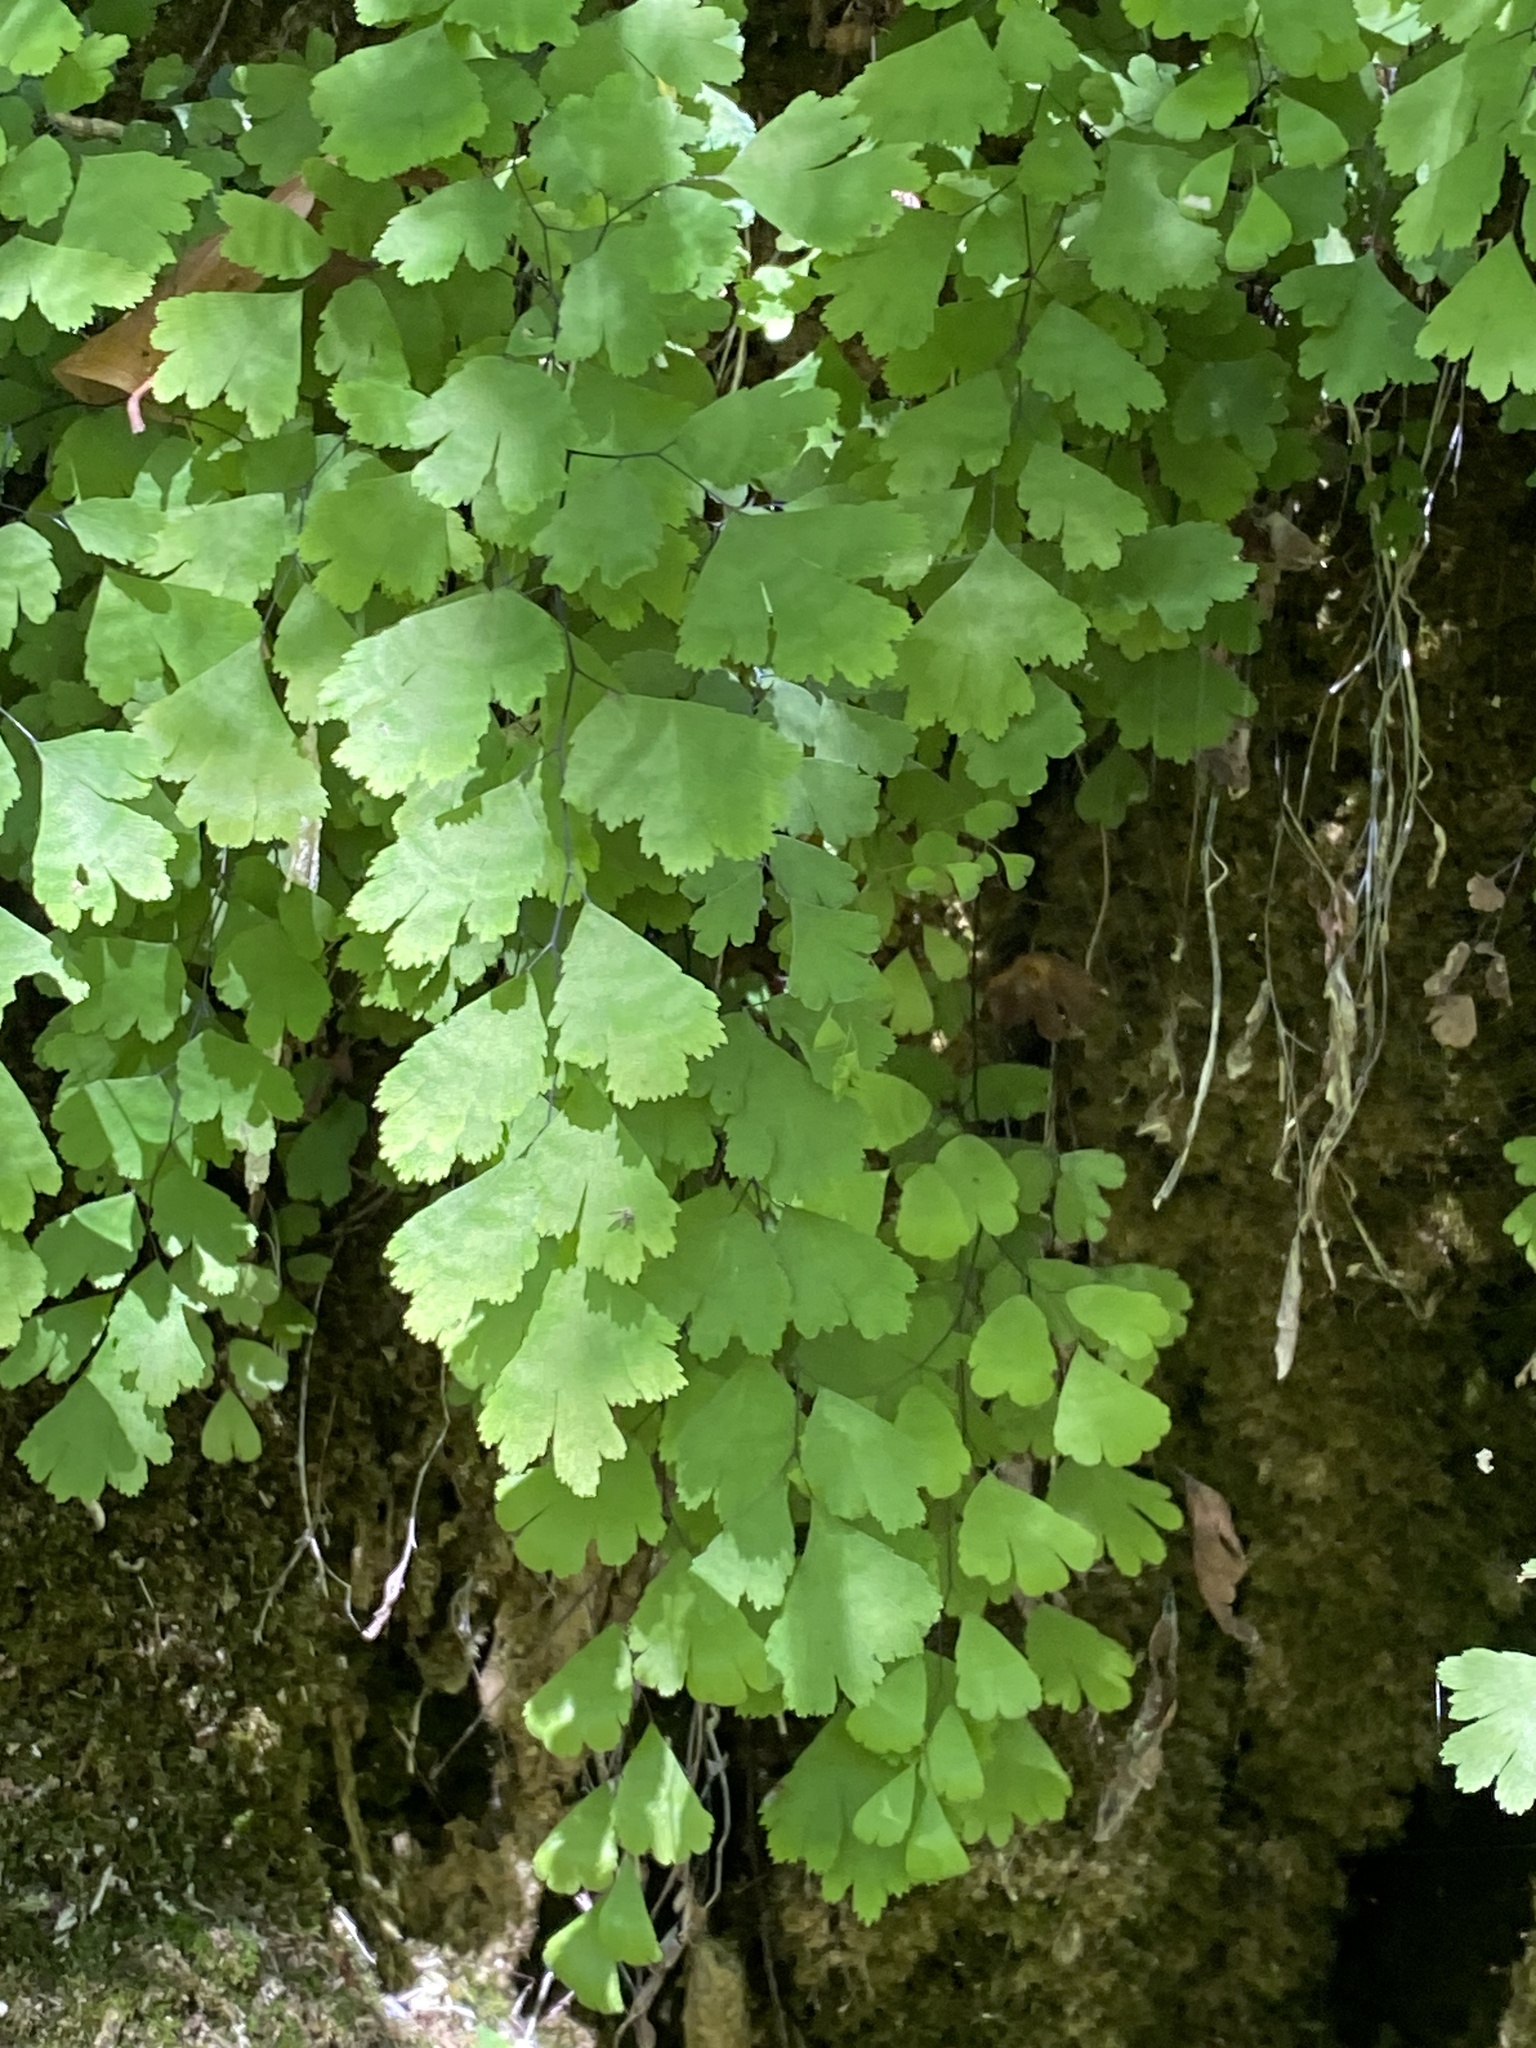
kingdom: Plantae
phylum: Tracheophyta
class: Polypodiopsida
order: Polypodiales
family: Pteridaceae
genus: Adiantum
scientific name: Adiantum capillus-veneris
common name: Maidenhair fern
